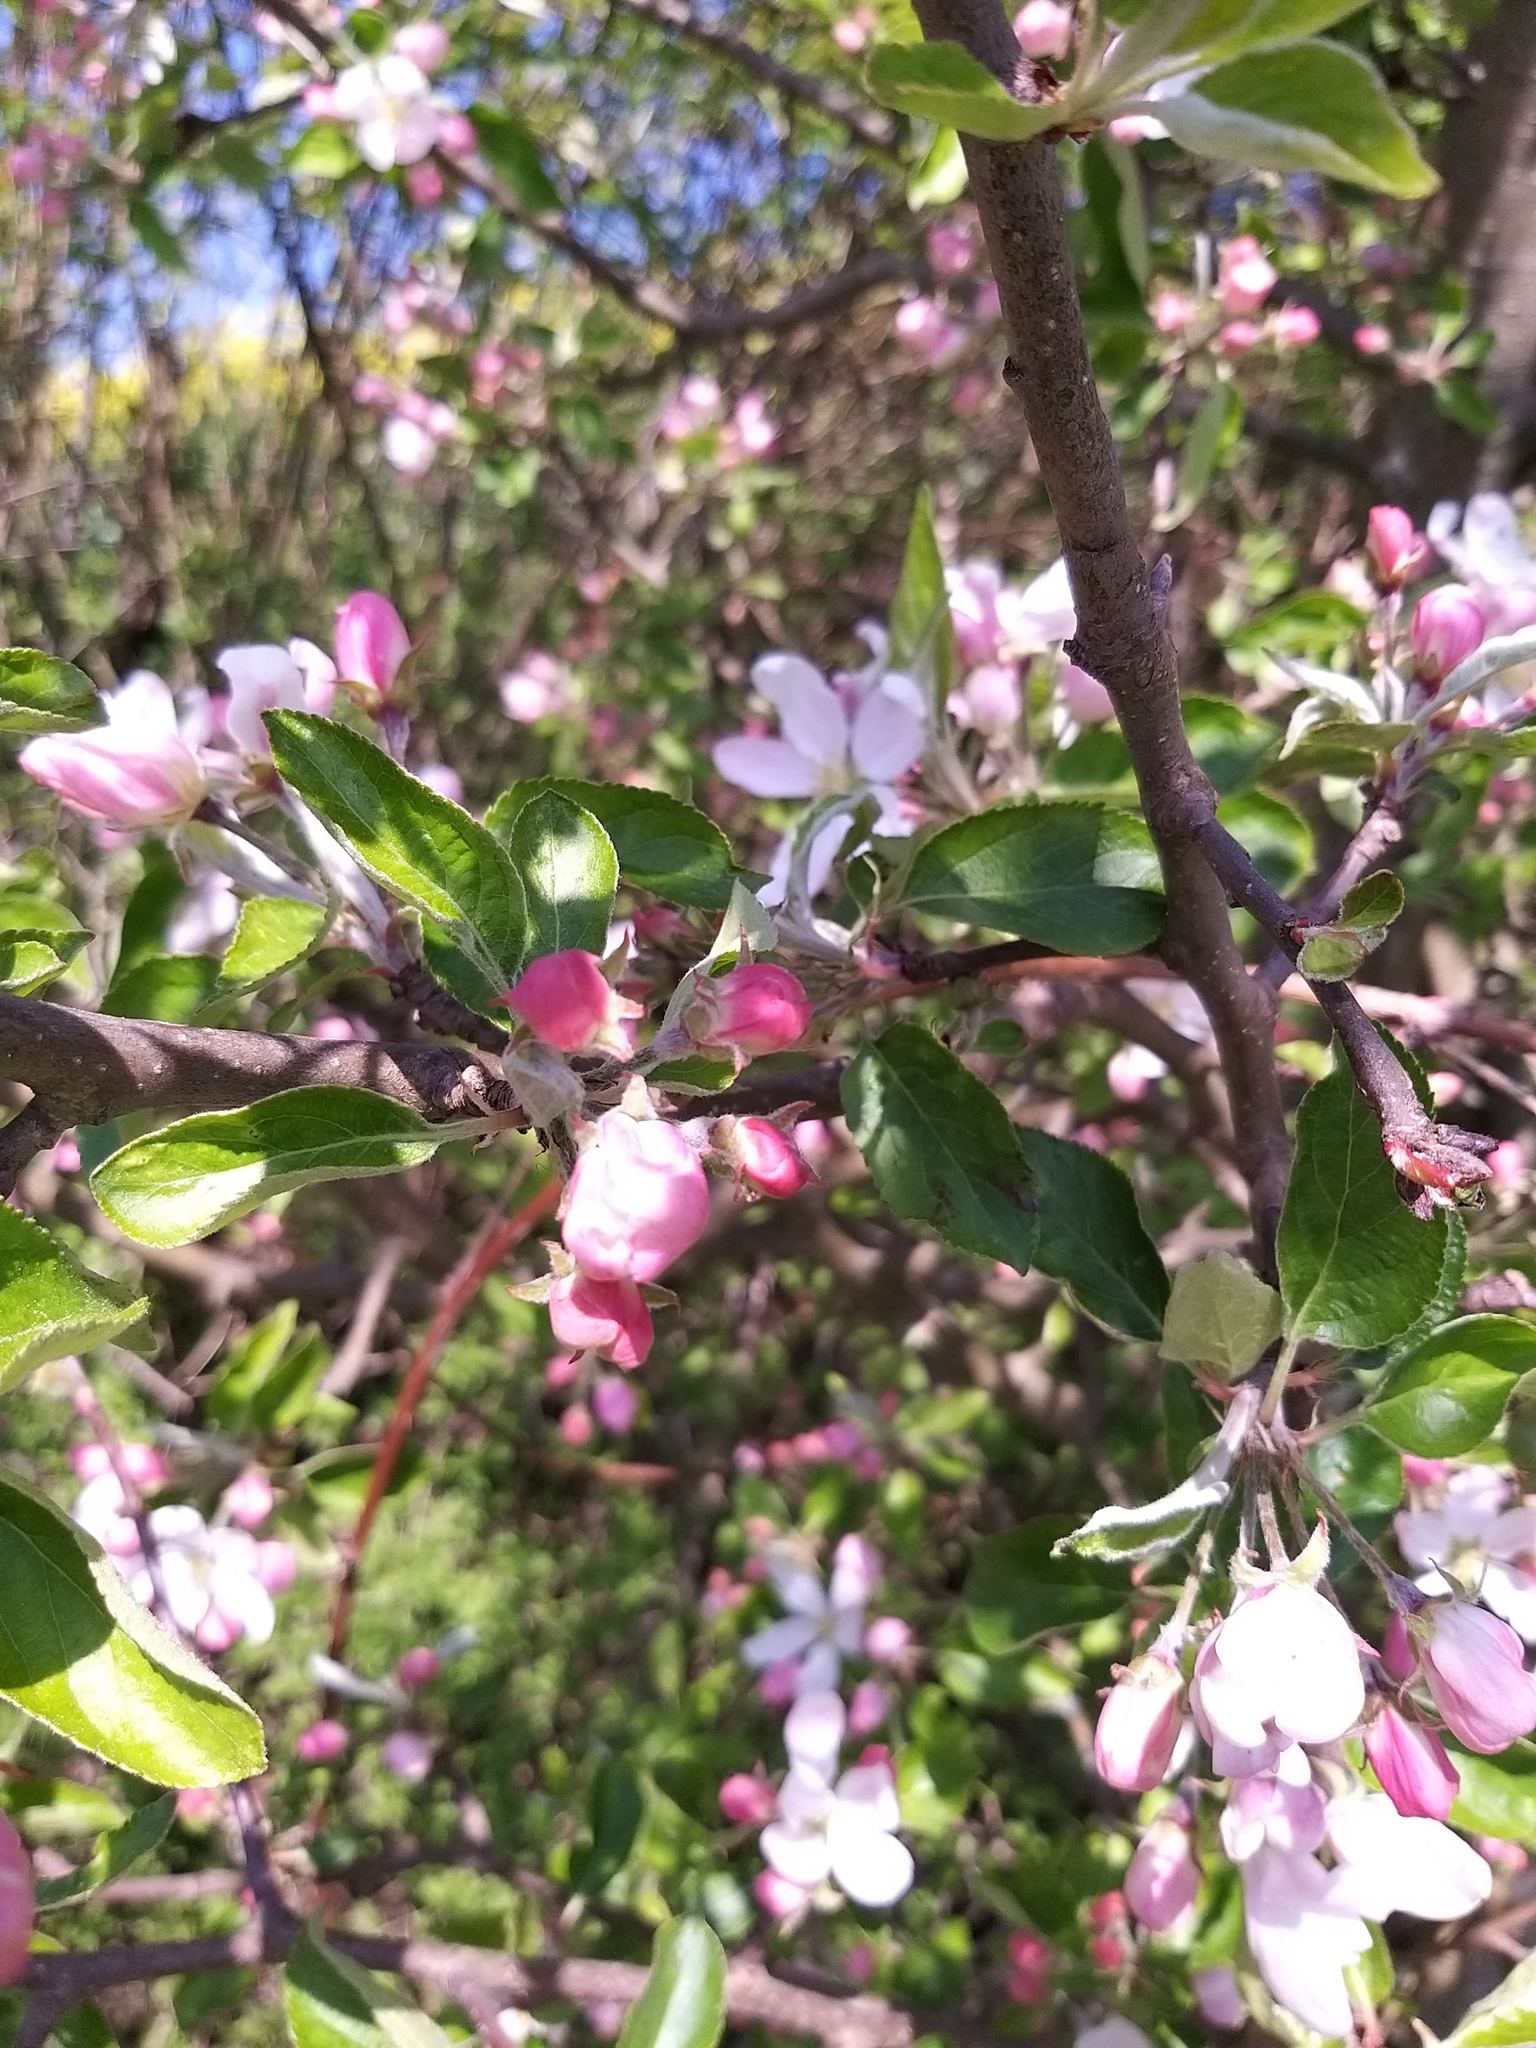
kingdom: Plantae
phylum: Tracheophyta
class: Magnoliopsida
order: Rosales
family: Rosaceae
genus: Malus
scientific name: Malus domestica
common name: Apple
